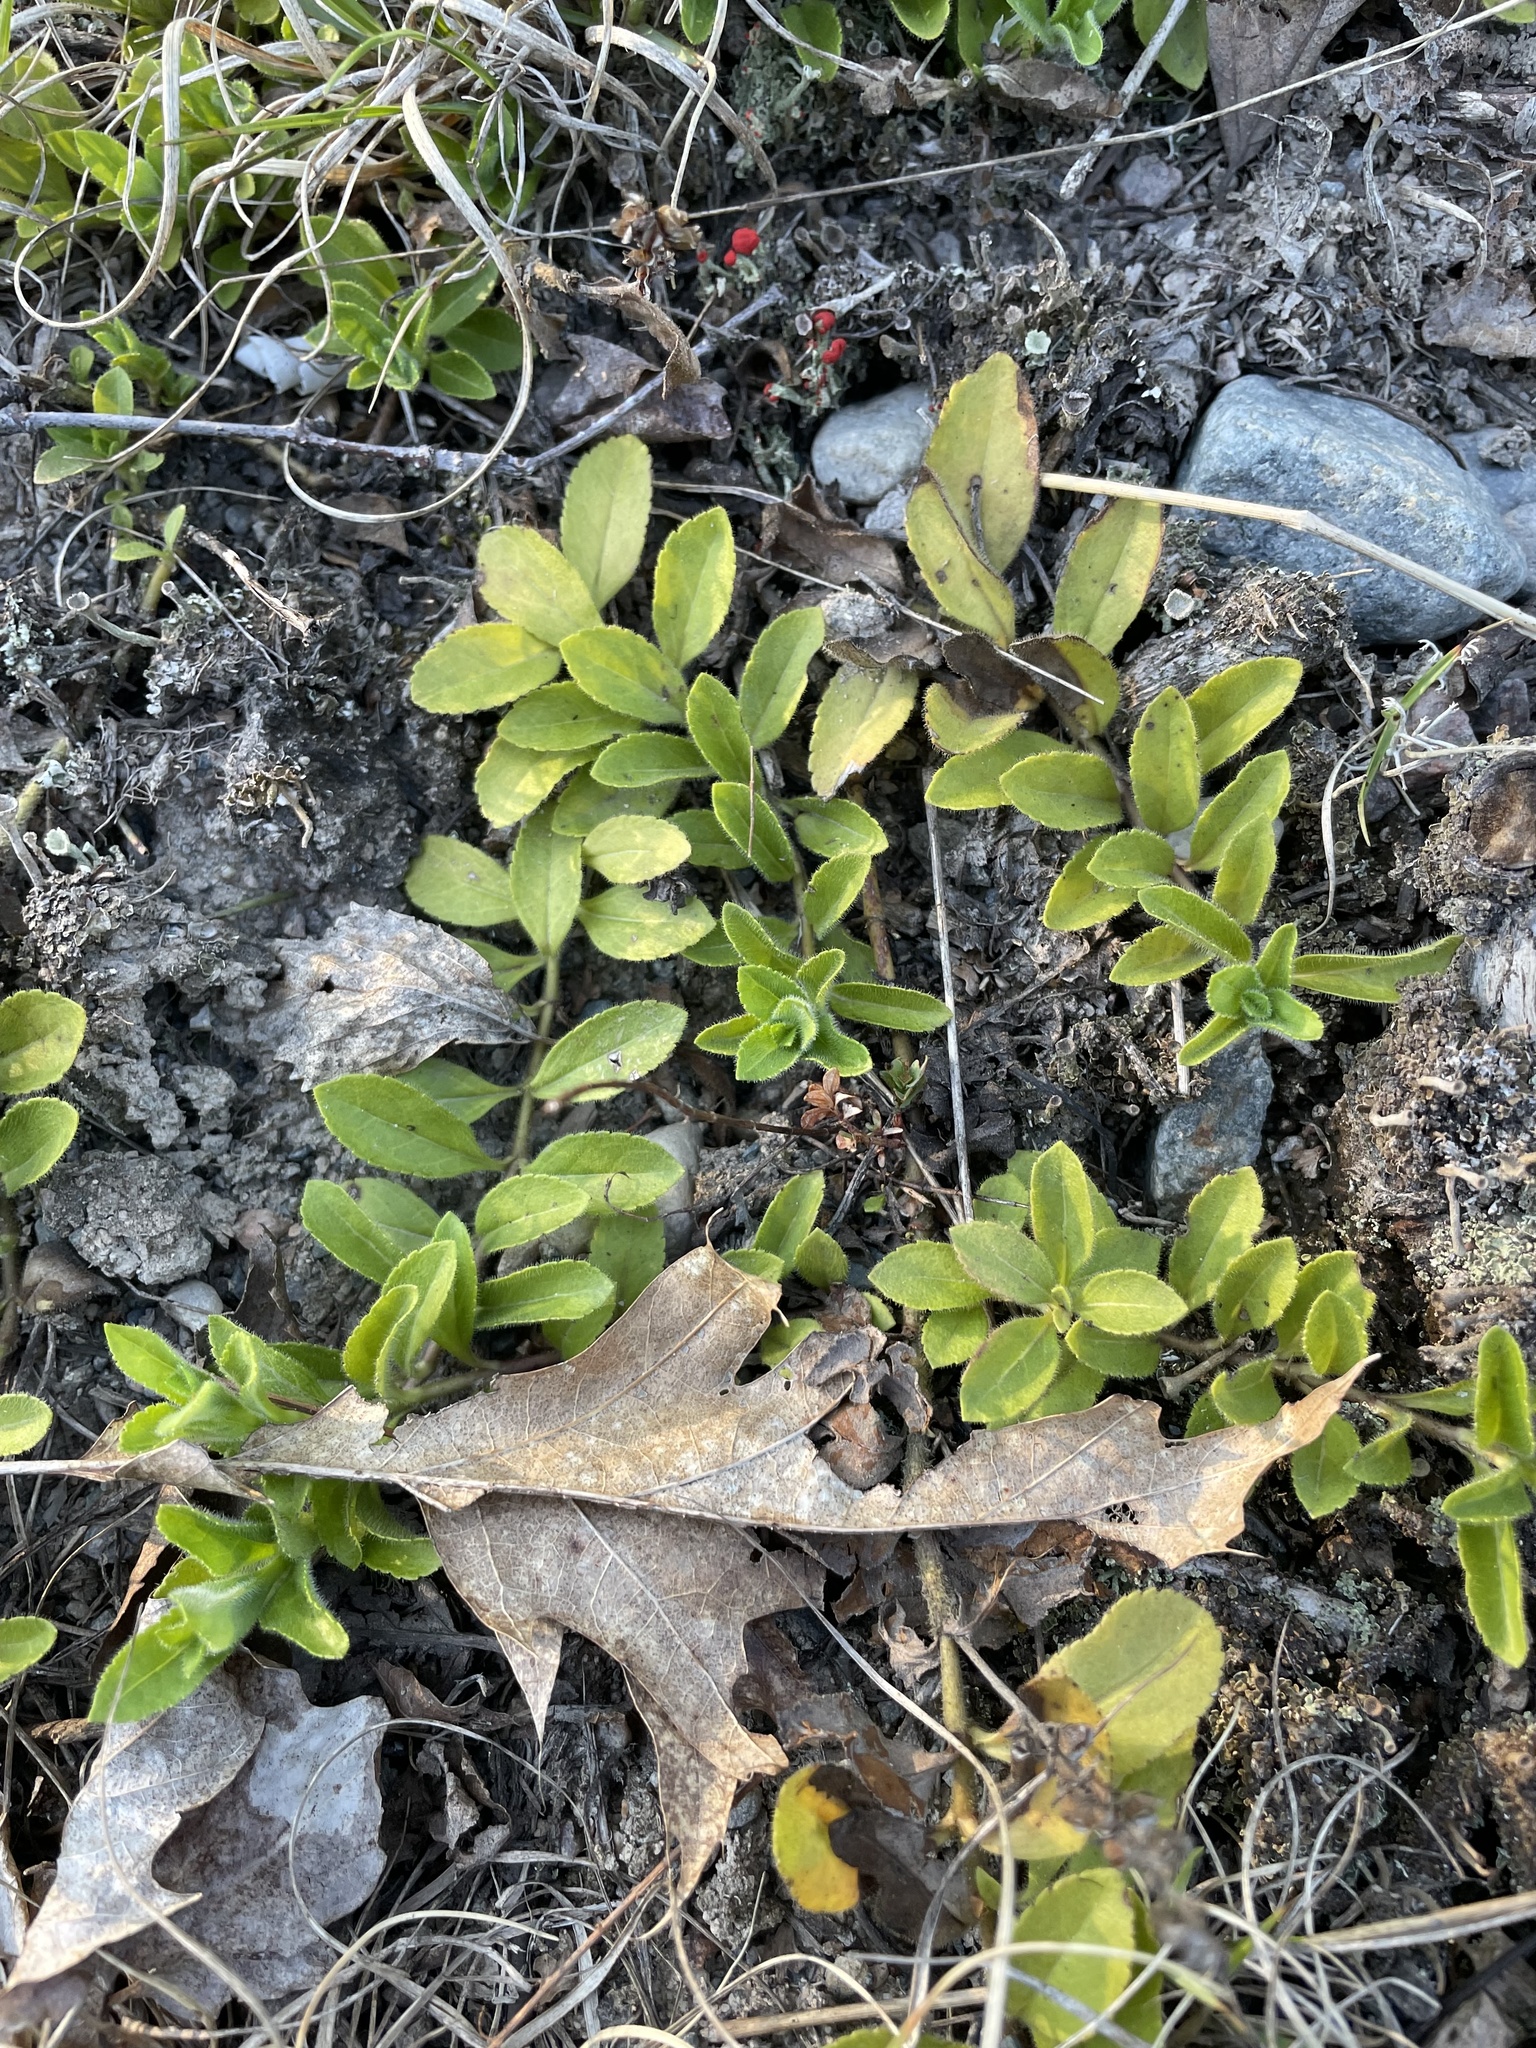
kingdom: Plantae
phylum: Tracheophyta
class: Magnoliopsida
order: Lamiales
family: Plantaginaceae
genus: Veronica
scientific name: Veronica officinalis
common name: Common speedwell
